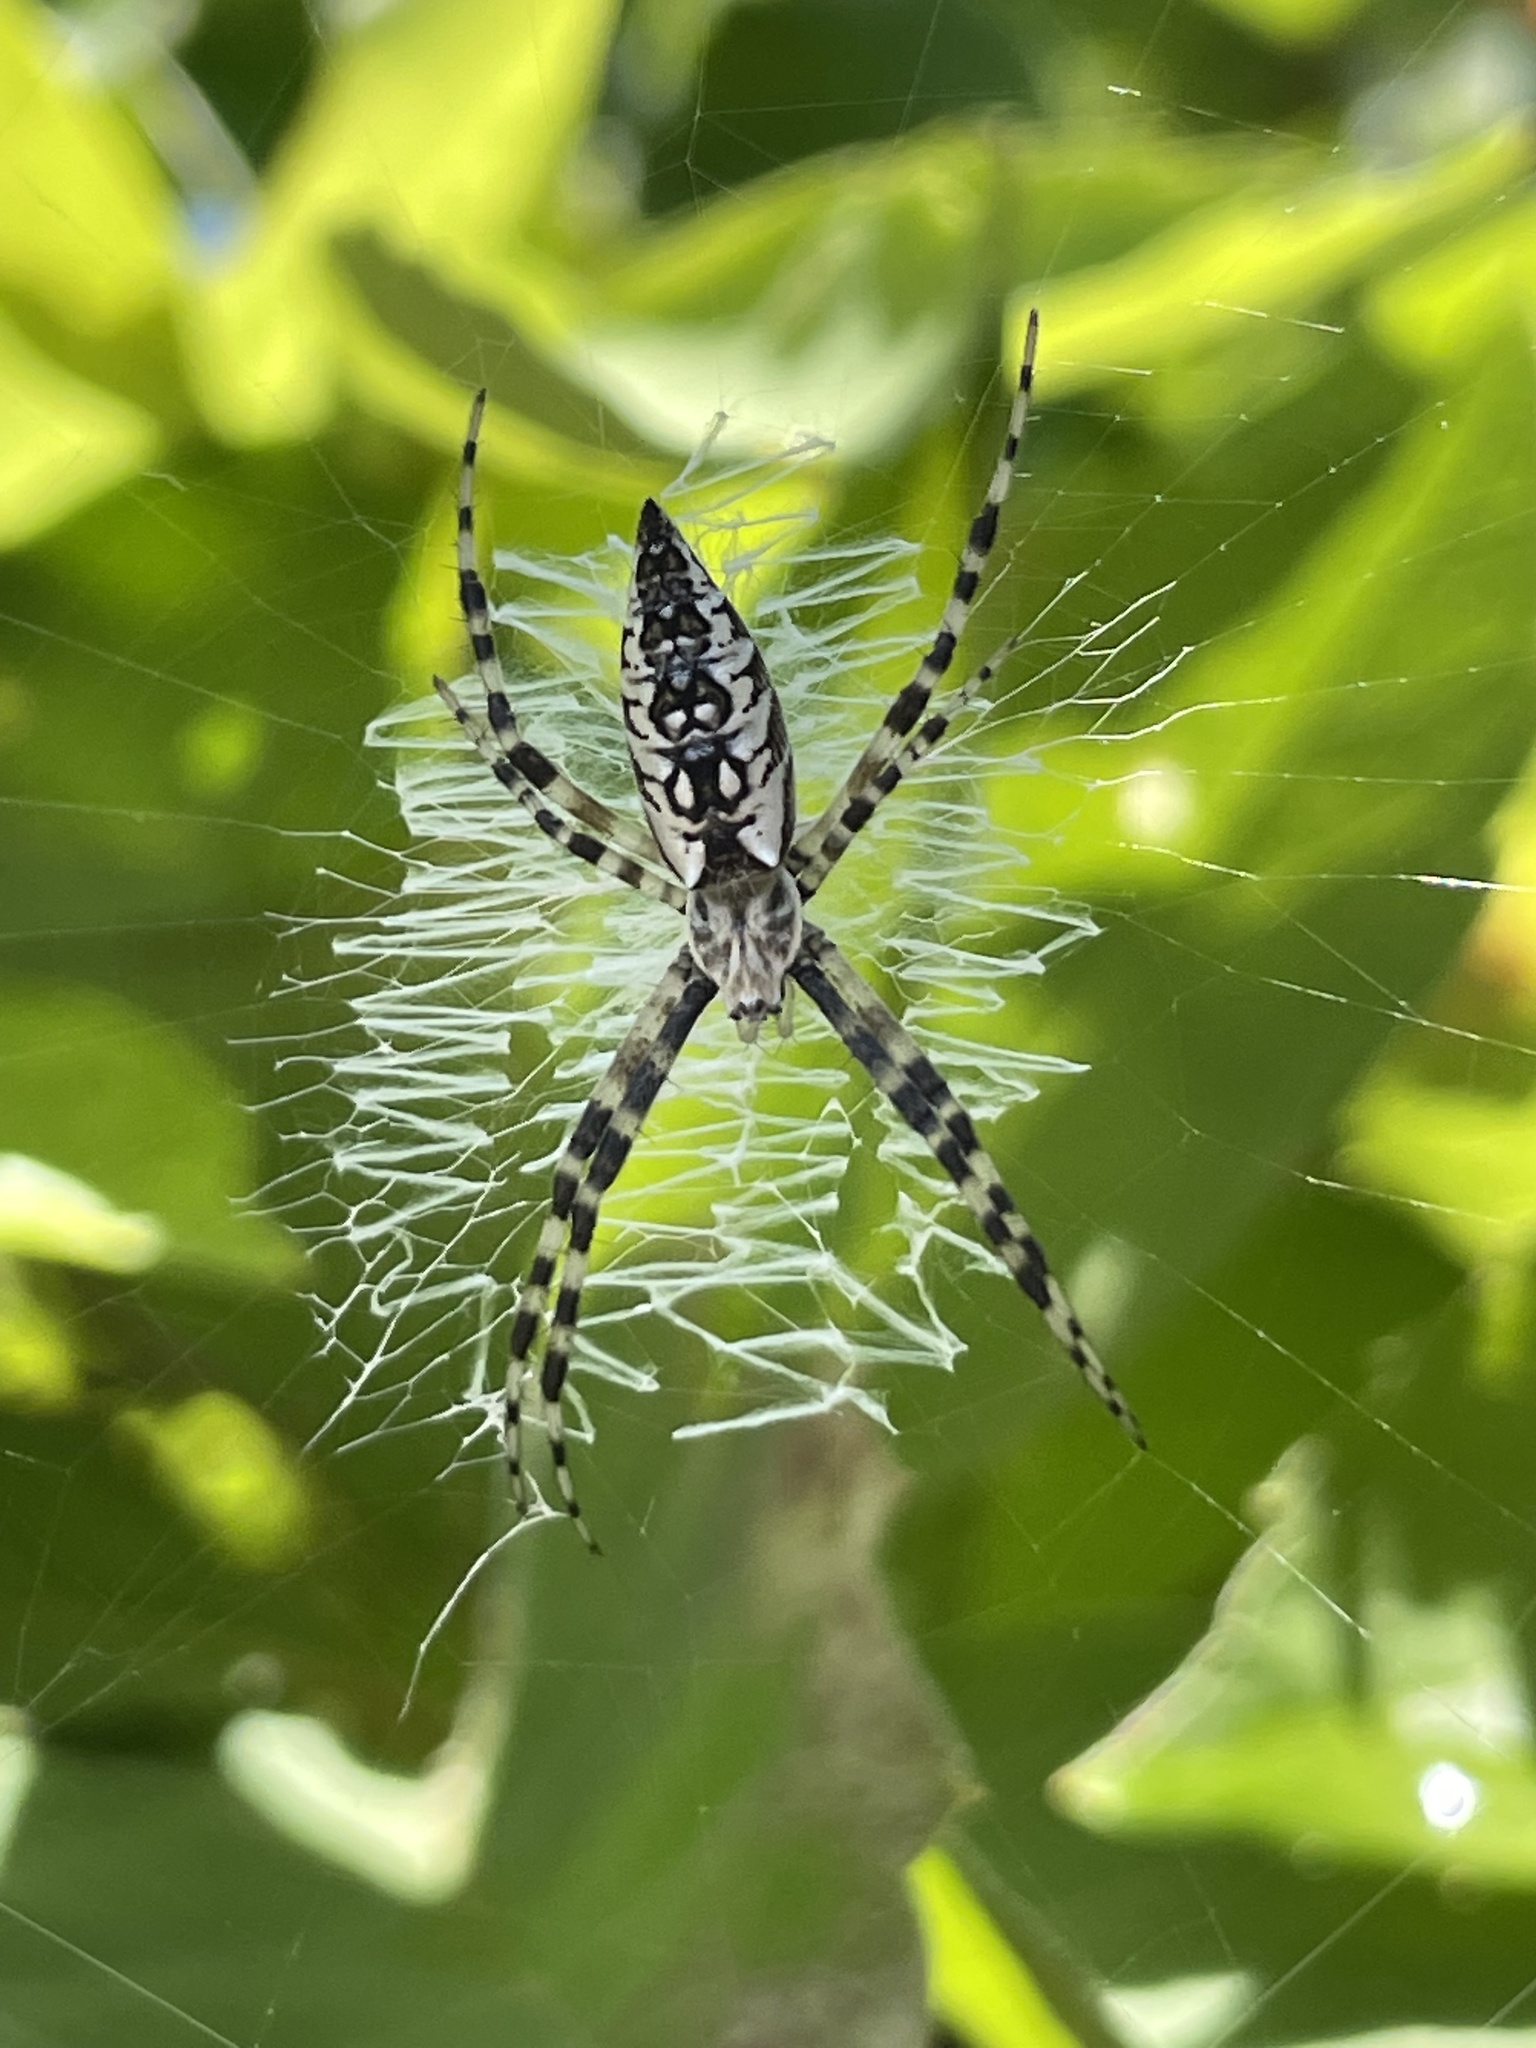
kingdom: Animalia
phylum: Arthropoda
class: Arachnida
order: Araneae
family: Araneidae
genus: Argiope
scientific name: Argiope aurantia
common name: Orb weavers
